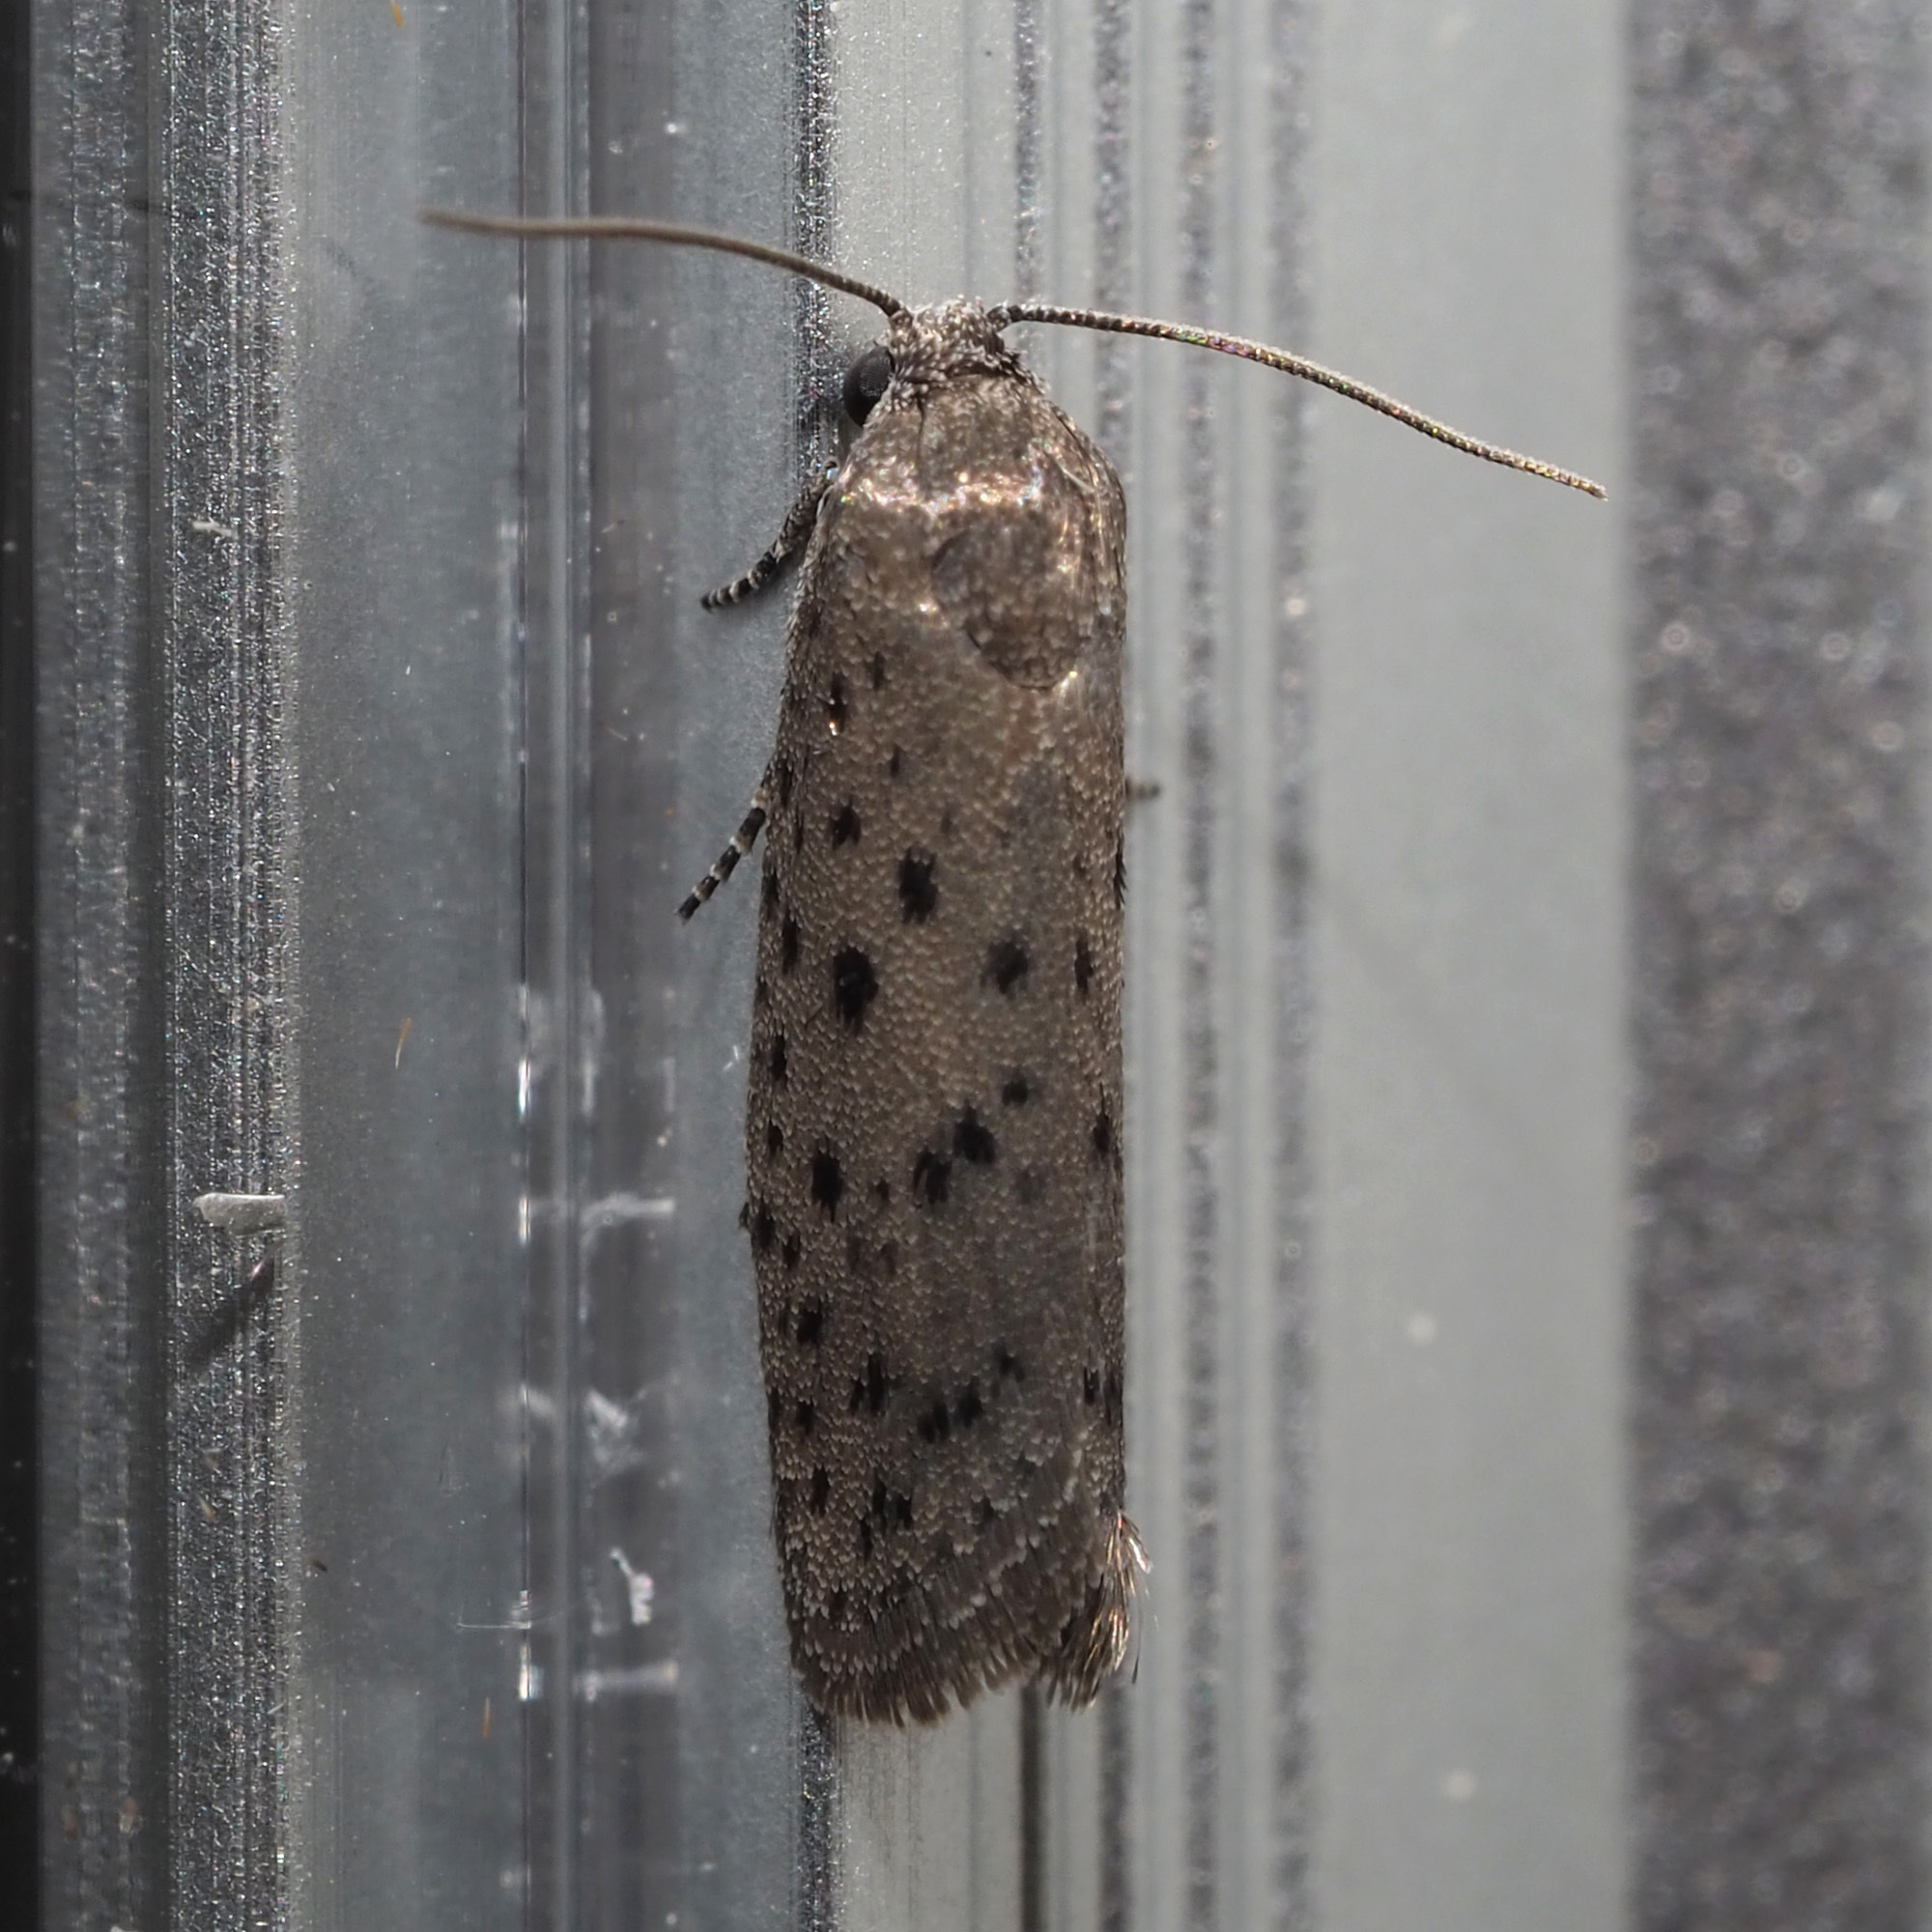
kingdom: Animalia
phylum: Arthropoda
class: Insecta
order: Lepidoptera
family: Galacticidae
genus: Homadaula
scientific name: Homadaula anisocentra
